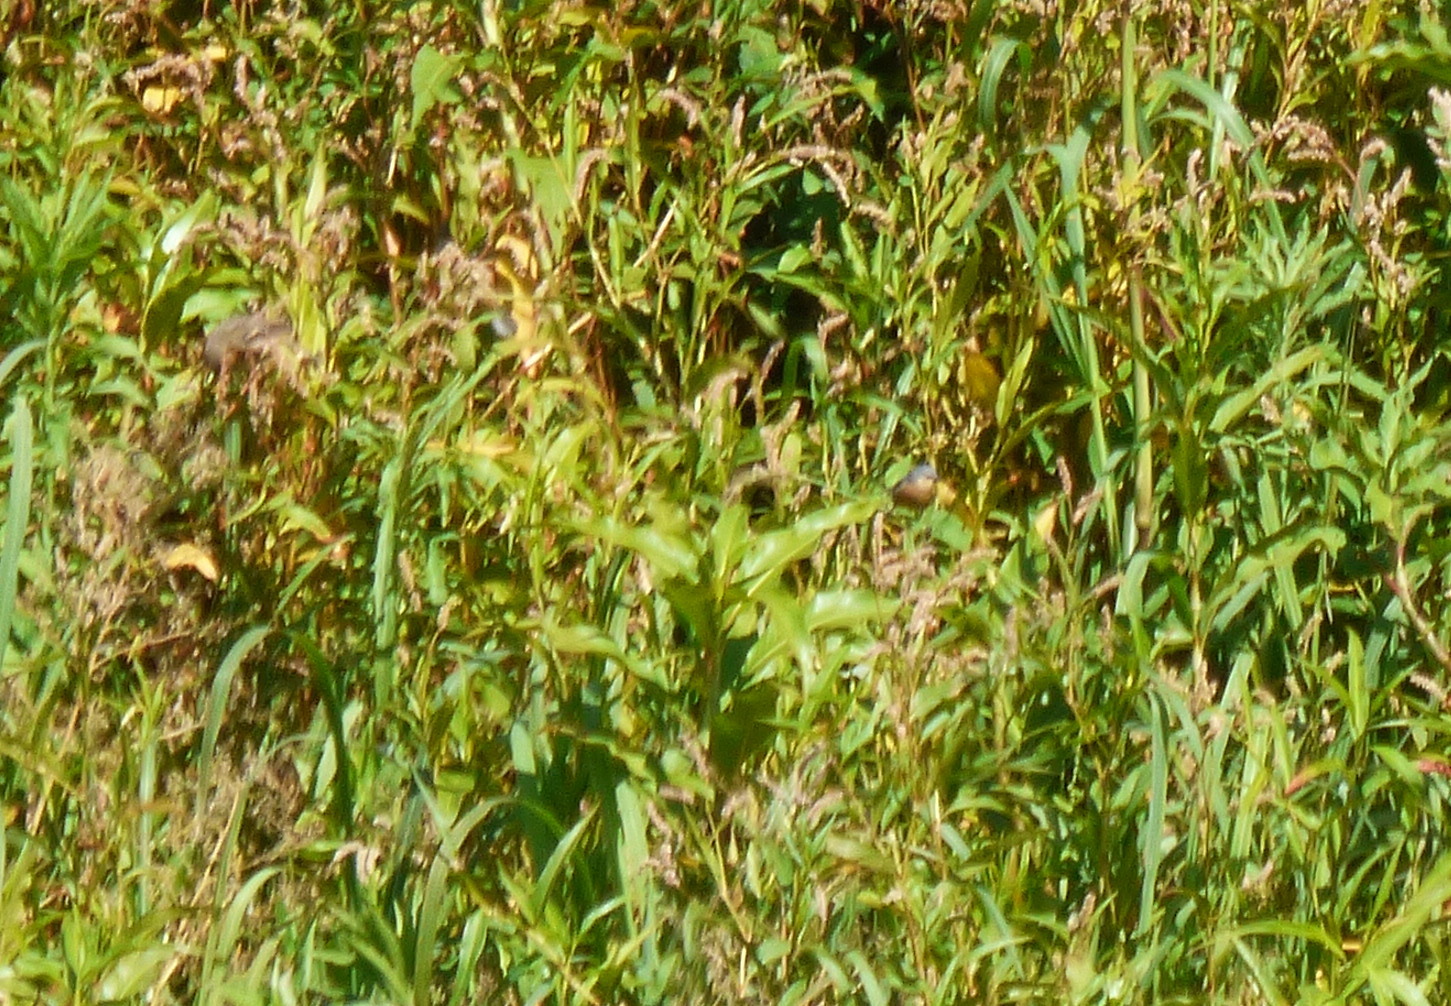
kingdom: Animalia
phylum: Chordata
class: Aves
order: Passeriformes
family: Thraupidae
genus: Sporophila
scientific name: Sporophila hypoxantha
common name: Tawny-bellied seedeater
